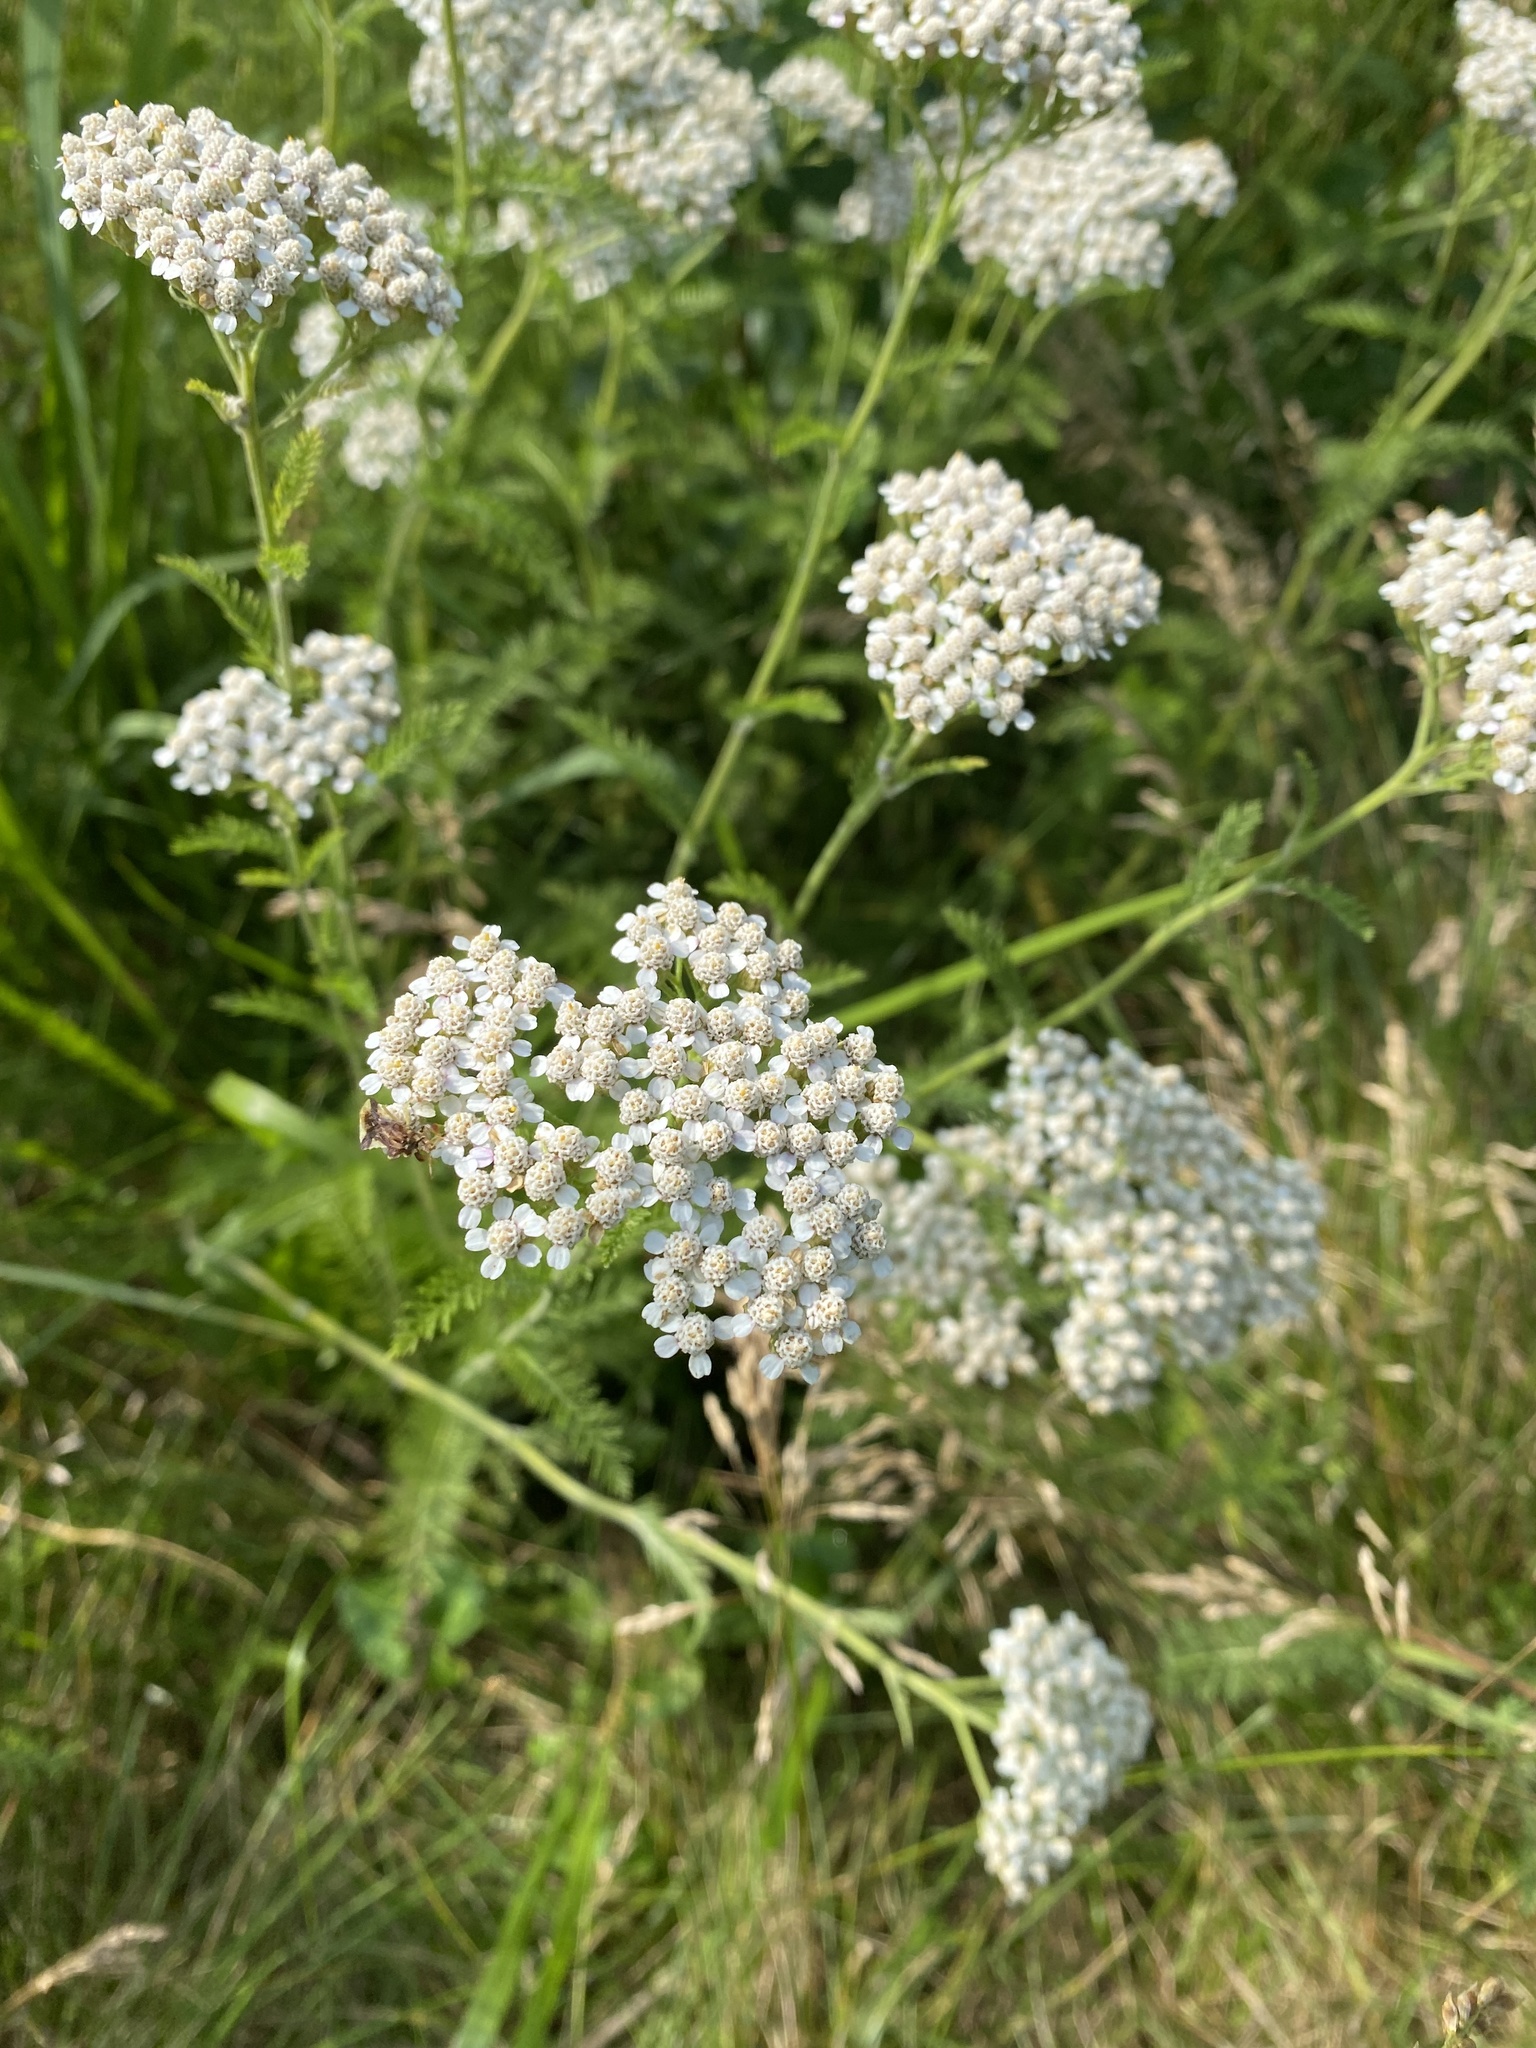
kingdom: Plantae
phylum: Tracheophyta
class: Magnoliopsida
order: Asterales
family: Asteraceae
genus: Achillea
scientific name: Achillea millefolium
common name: Yarrow
